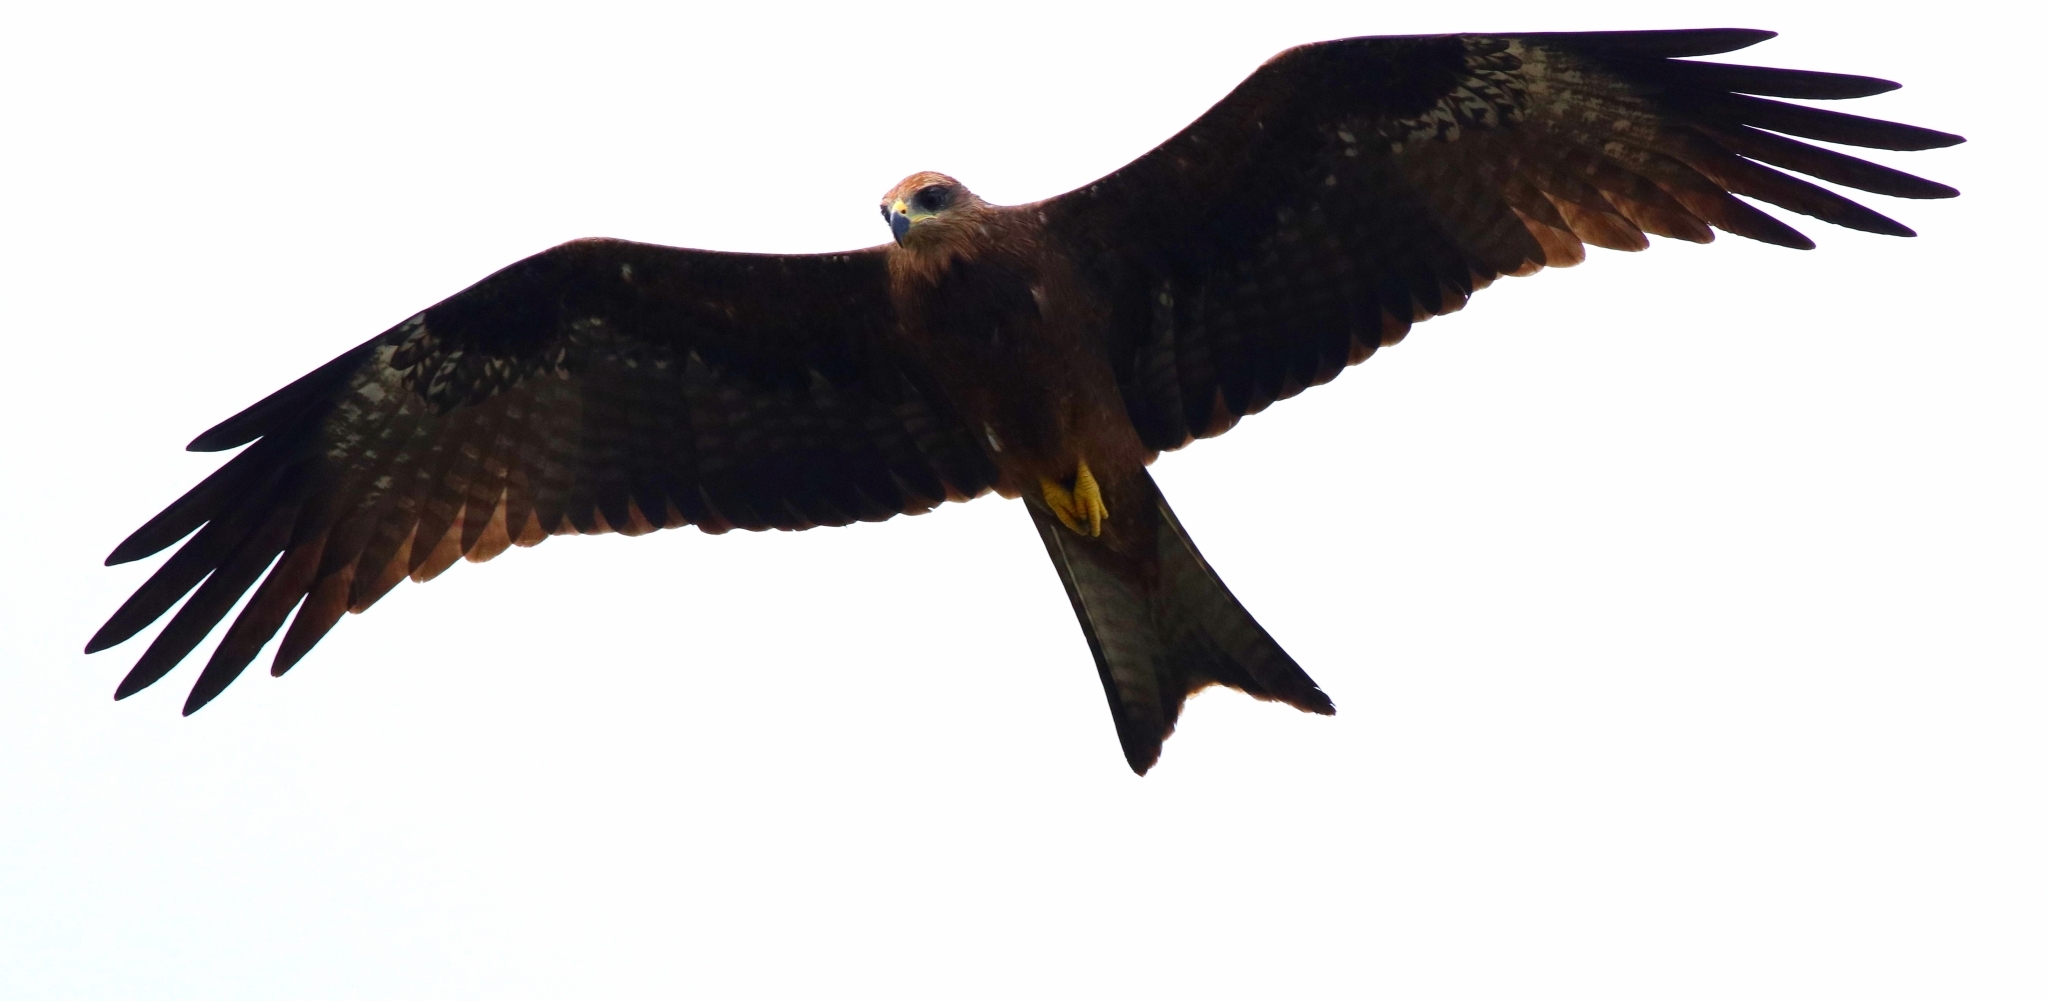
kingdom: Animalia
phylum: Chordata
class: Aves
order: Accipitriformes
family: Accipitridae
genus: Milvus
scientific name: Milvus migrans
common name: Black kite
